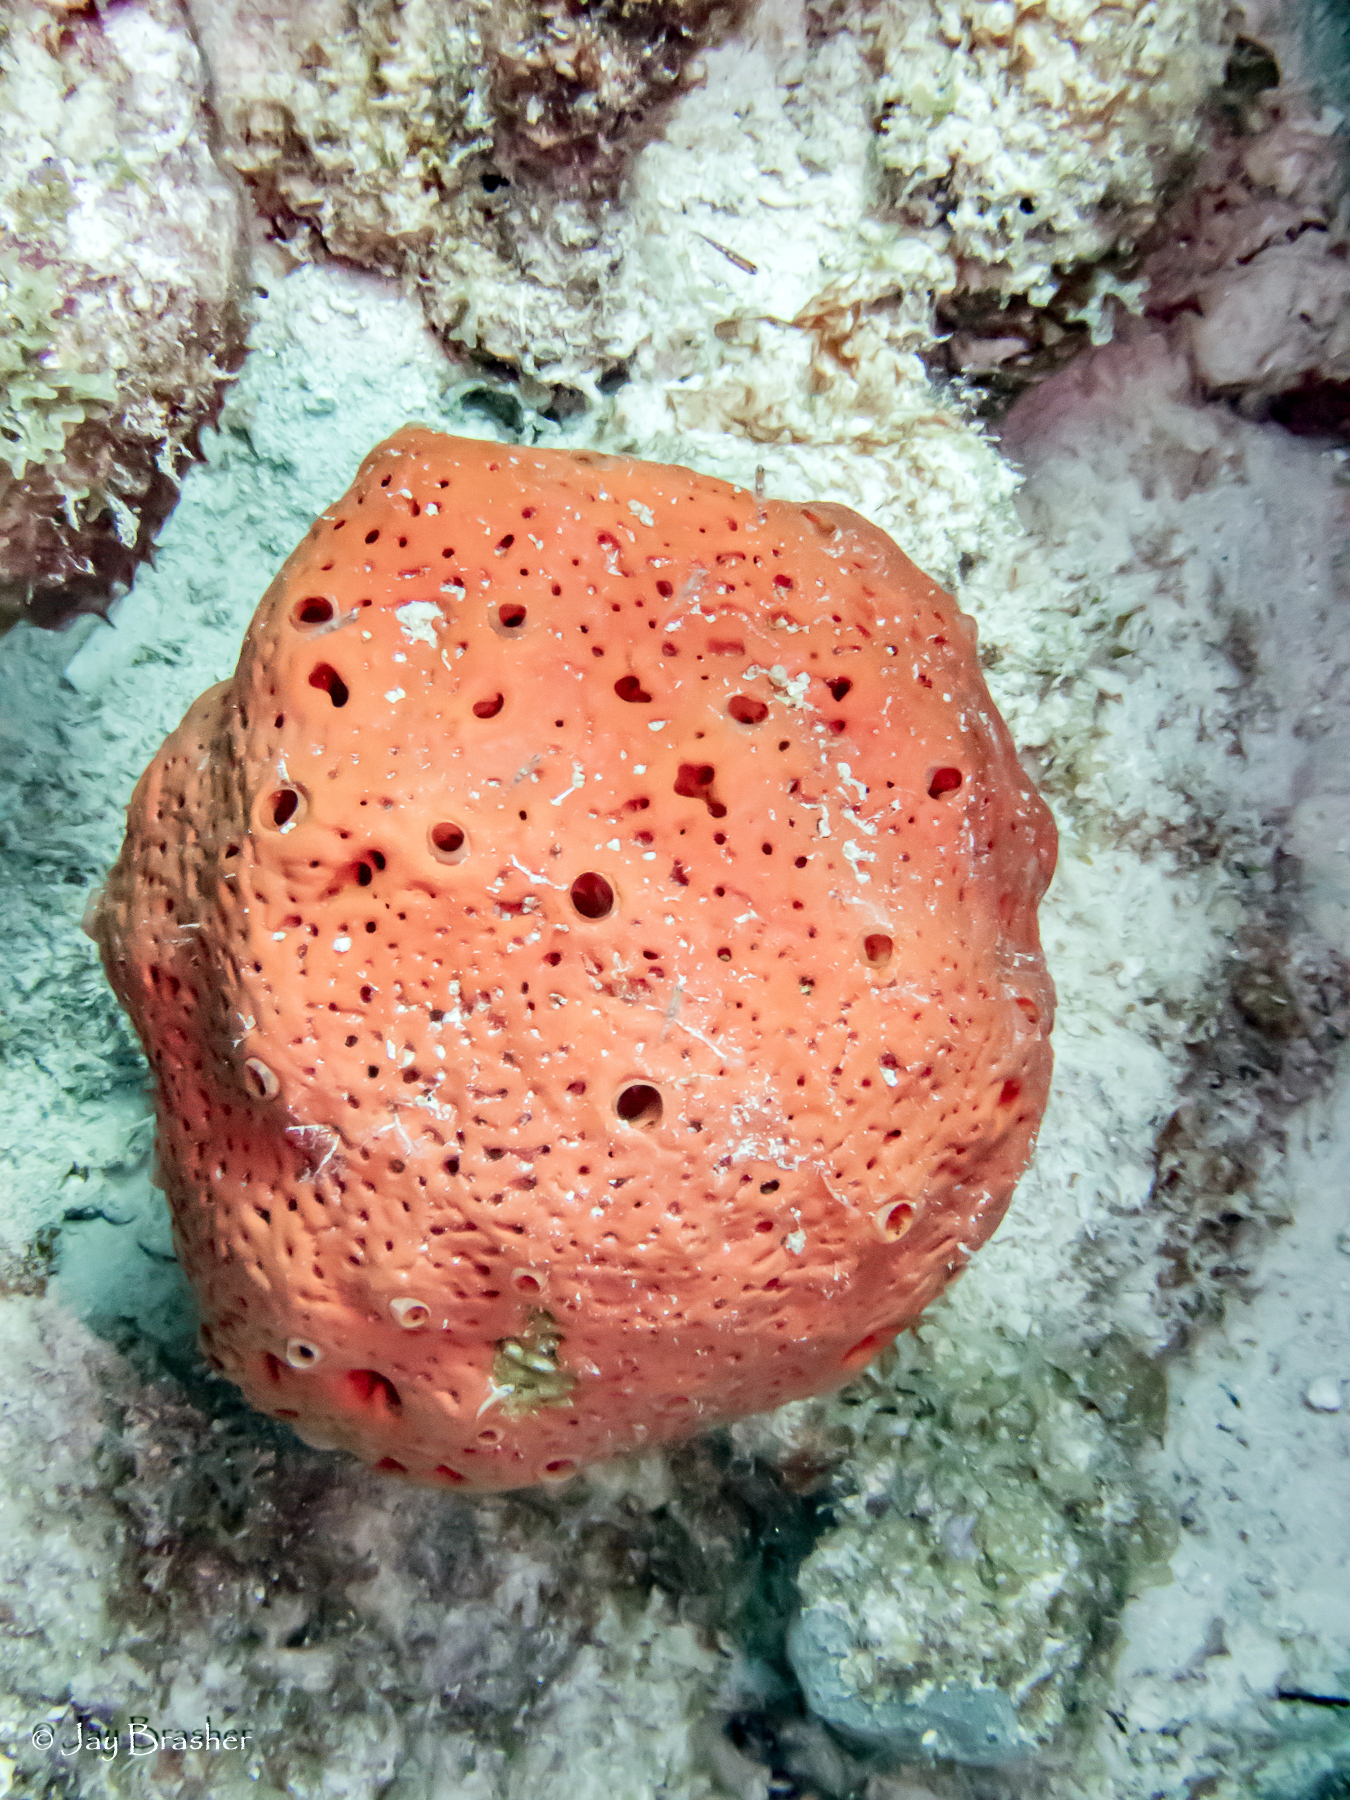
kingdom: Animalia
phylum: Porifera
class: Demospongiae
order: Agelasida
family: Agelasidae
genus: Agelas
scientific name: Agelas sventres
